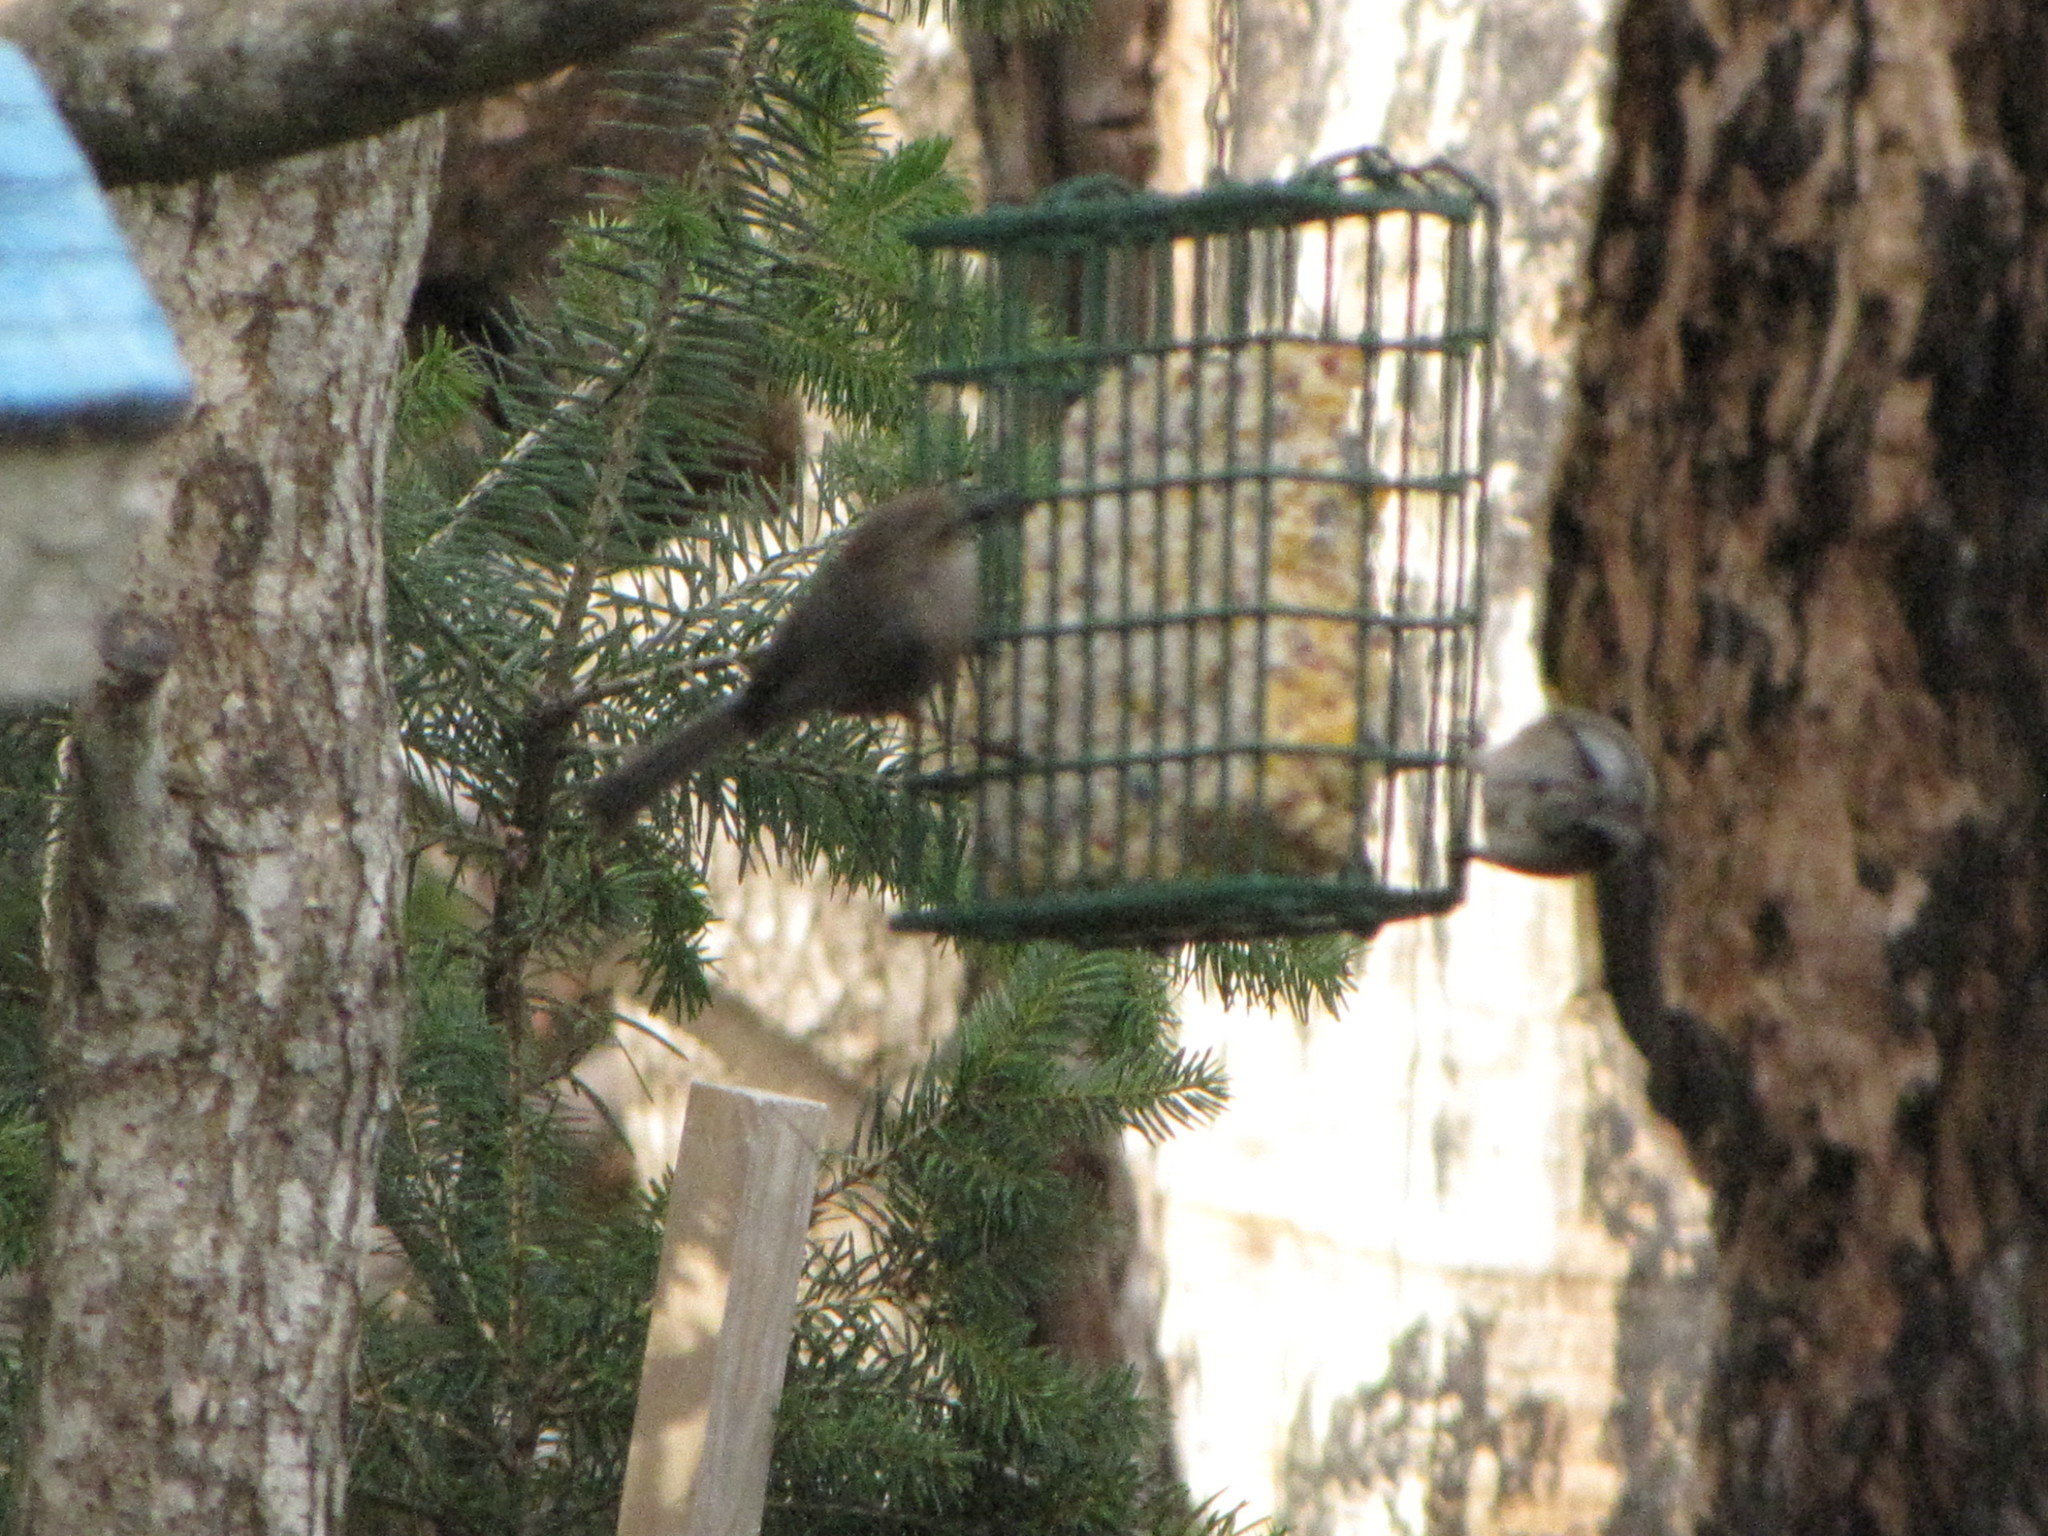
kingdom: Animalia
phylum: Chordata
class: Aves
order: Passeriformes
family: Aegithalidae
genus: Psaltriparus
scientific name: Psaltriparus minimus
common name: American bushtit
